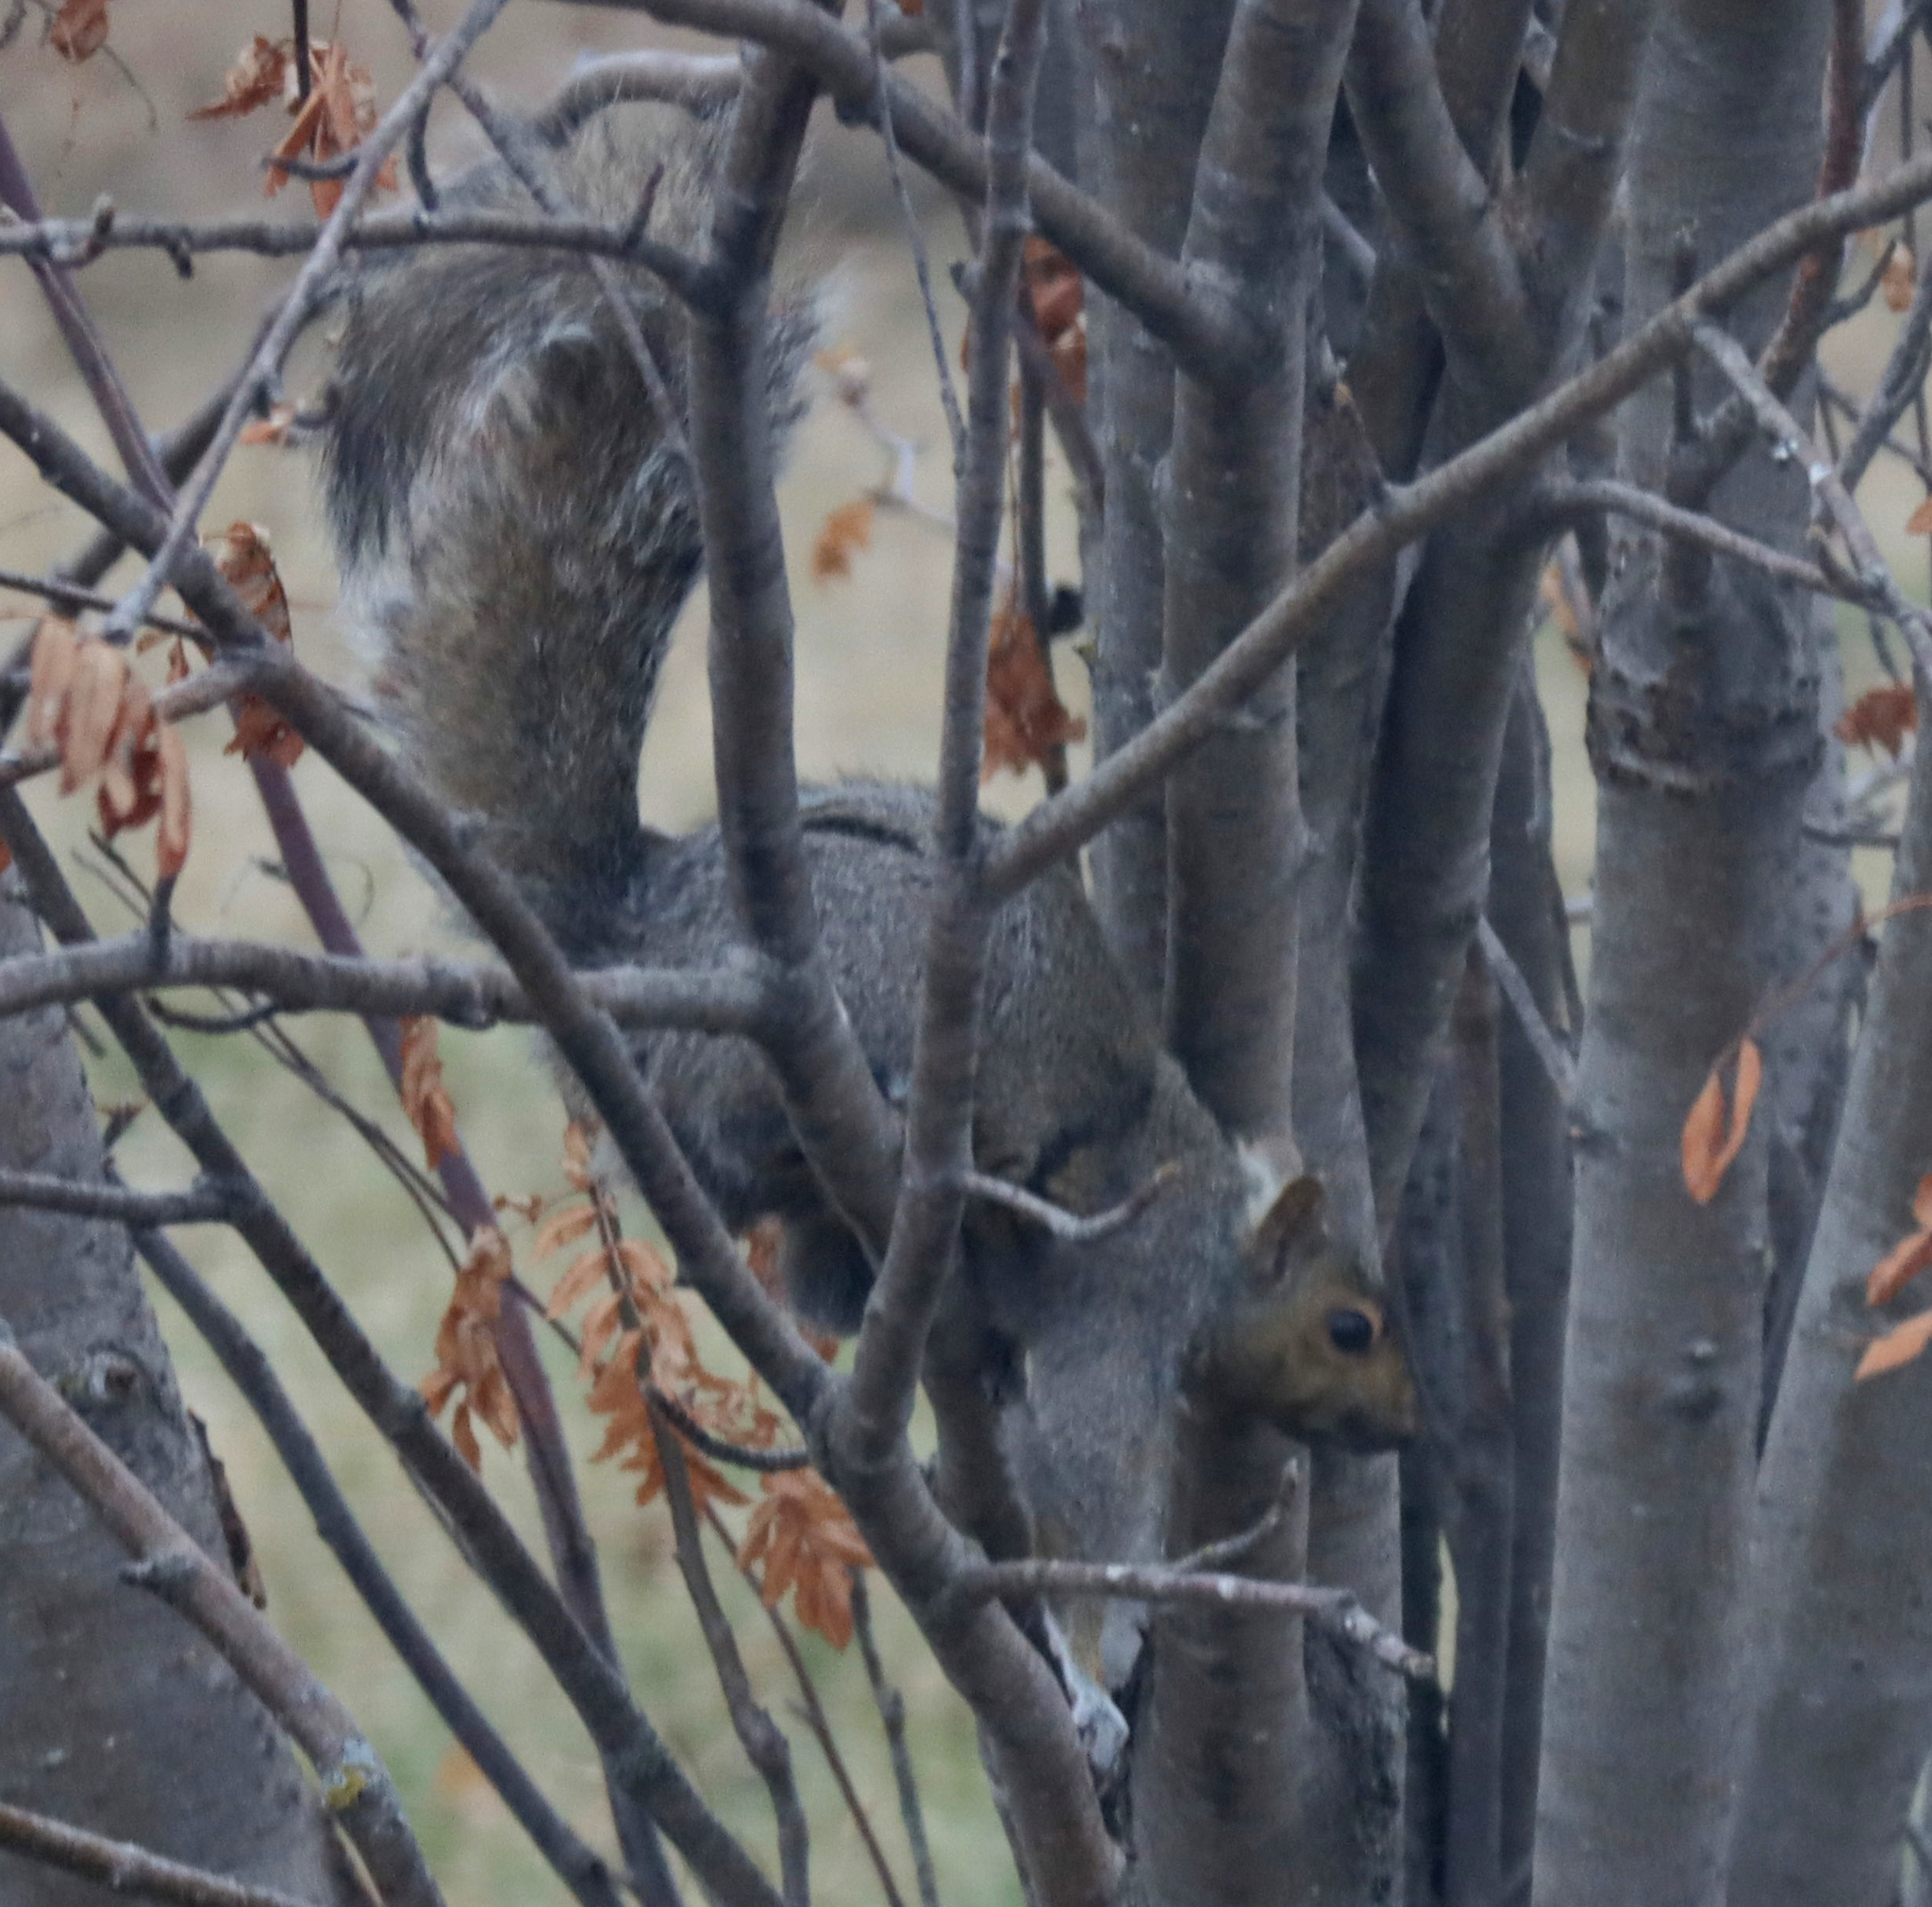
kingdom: Animalia
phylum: Chordata
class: Mammalia
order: Rodentia
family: Sciuridae
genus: Sciurus
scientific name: Sciurus carolinensis
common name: Eastern gray squirrel
